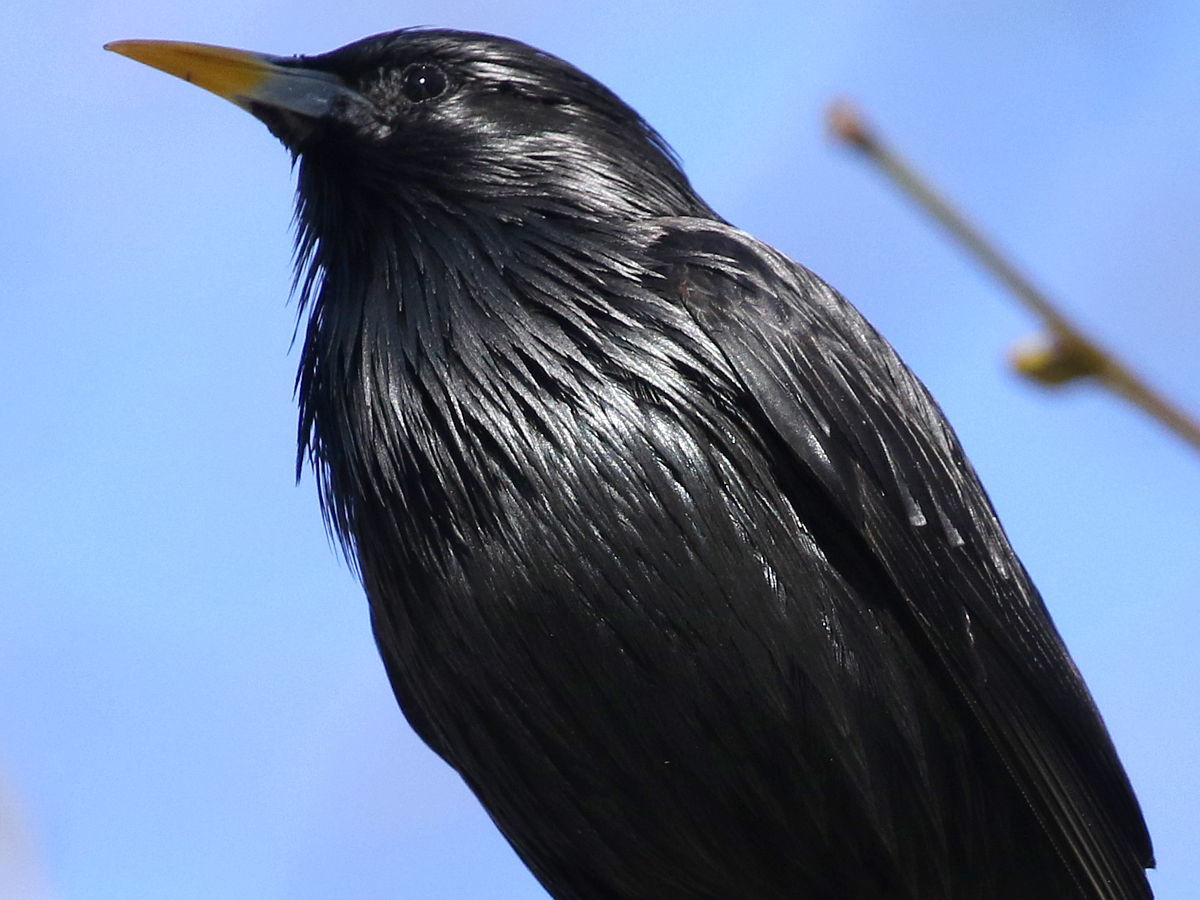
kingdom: Animalia
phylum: Chordata
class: Aves
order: Passeriformes
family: Sturnidae
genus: Sturnus
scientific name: Sturnus unicolor
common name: Spotless starling
